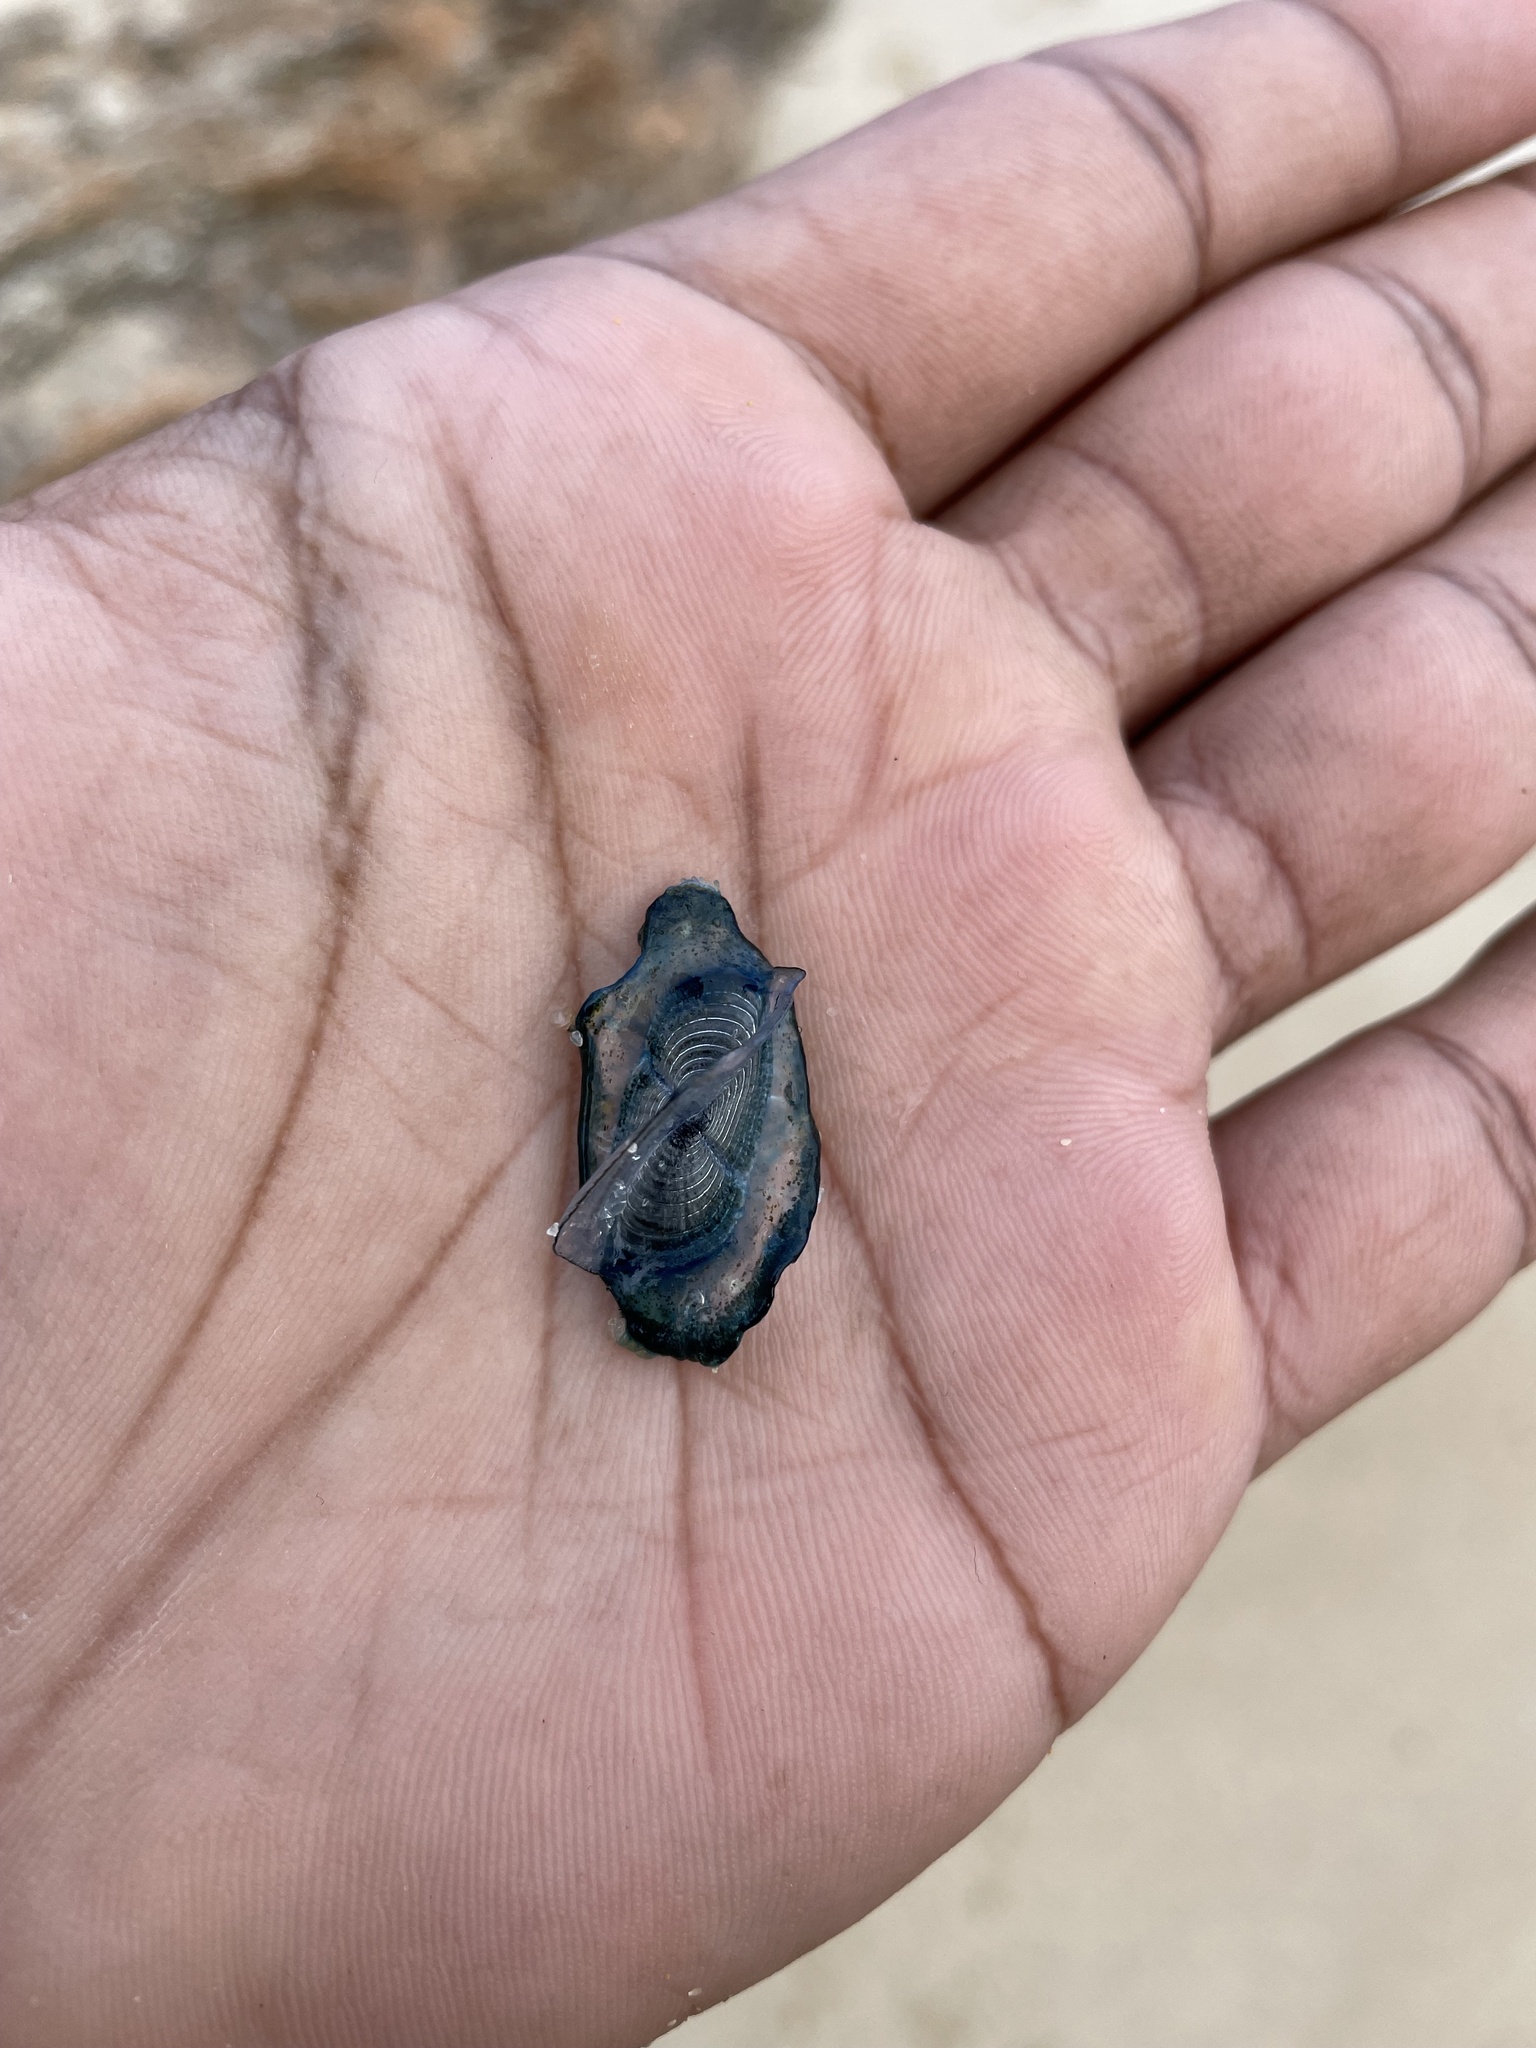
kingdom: Animalia
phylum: Cnidaria
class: Hydrozoa
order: Anthoathecata
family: Porpitidae
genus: Velella
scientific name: Velella velella
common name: By-the-wind-sailor
